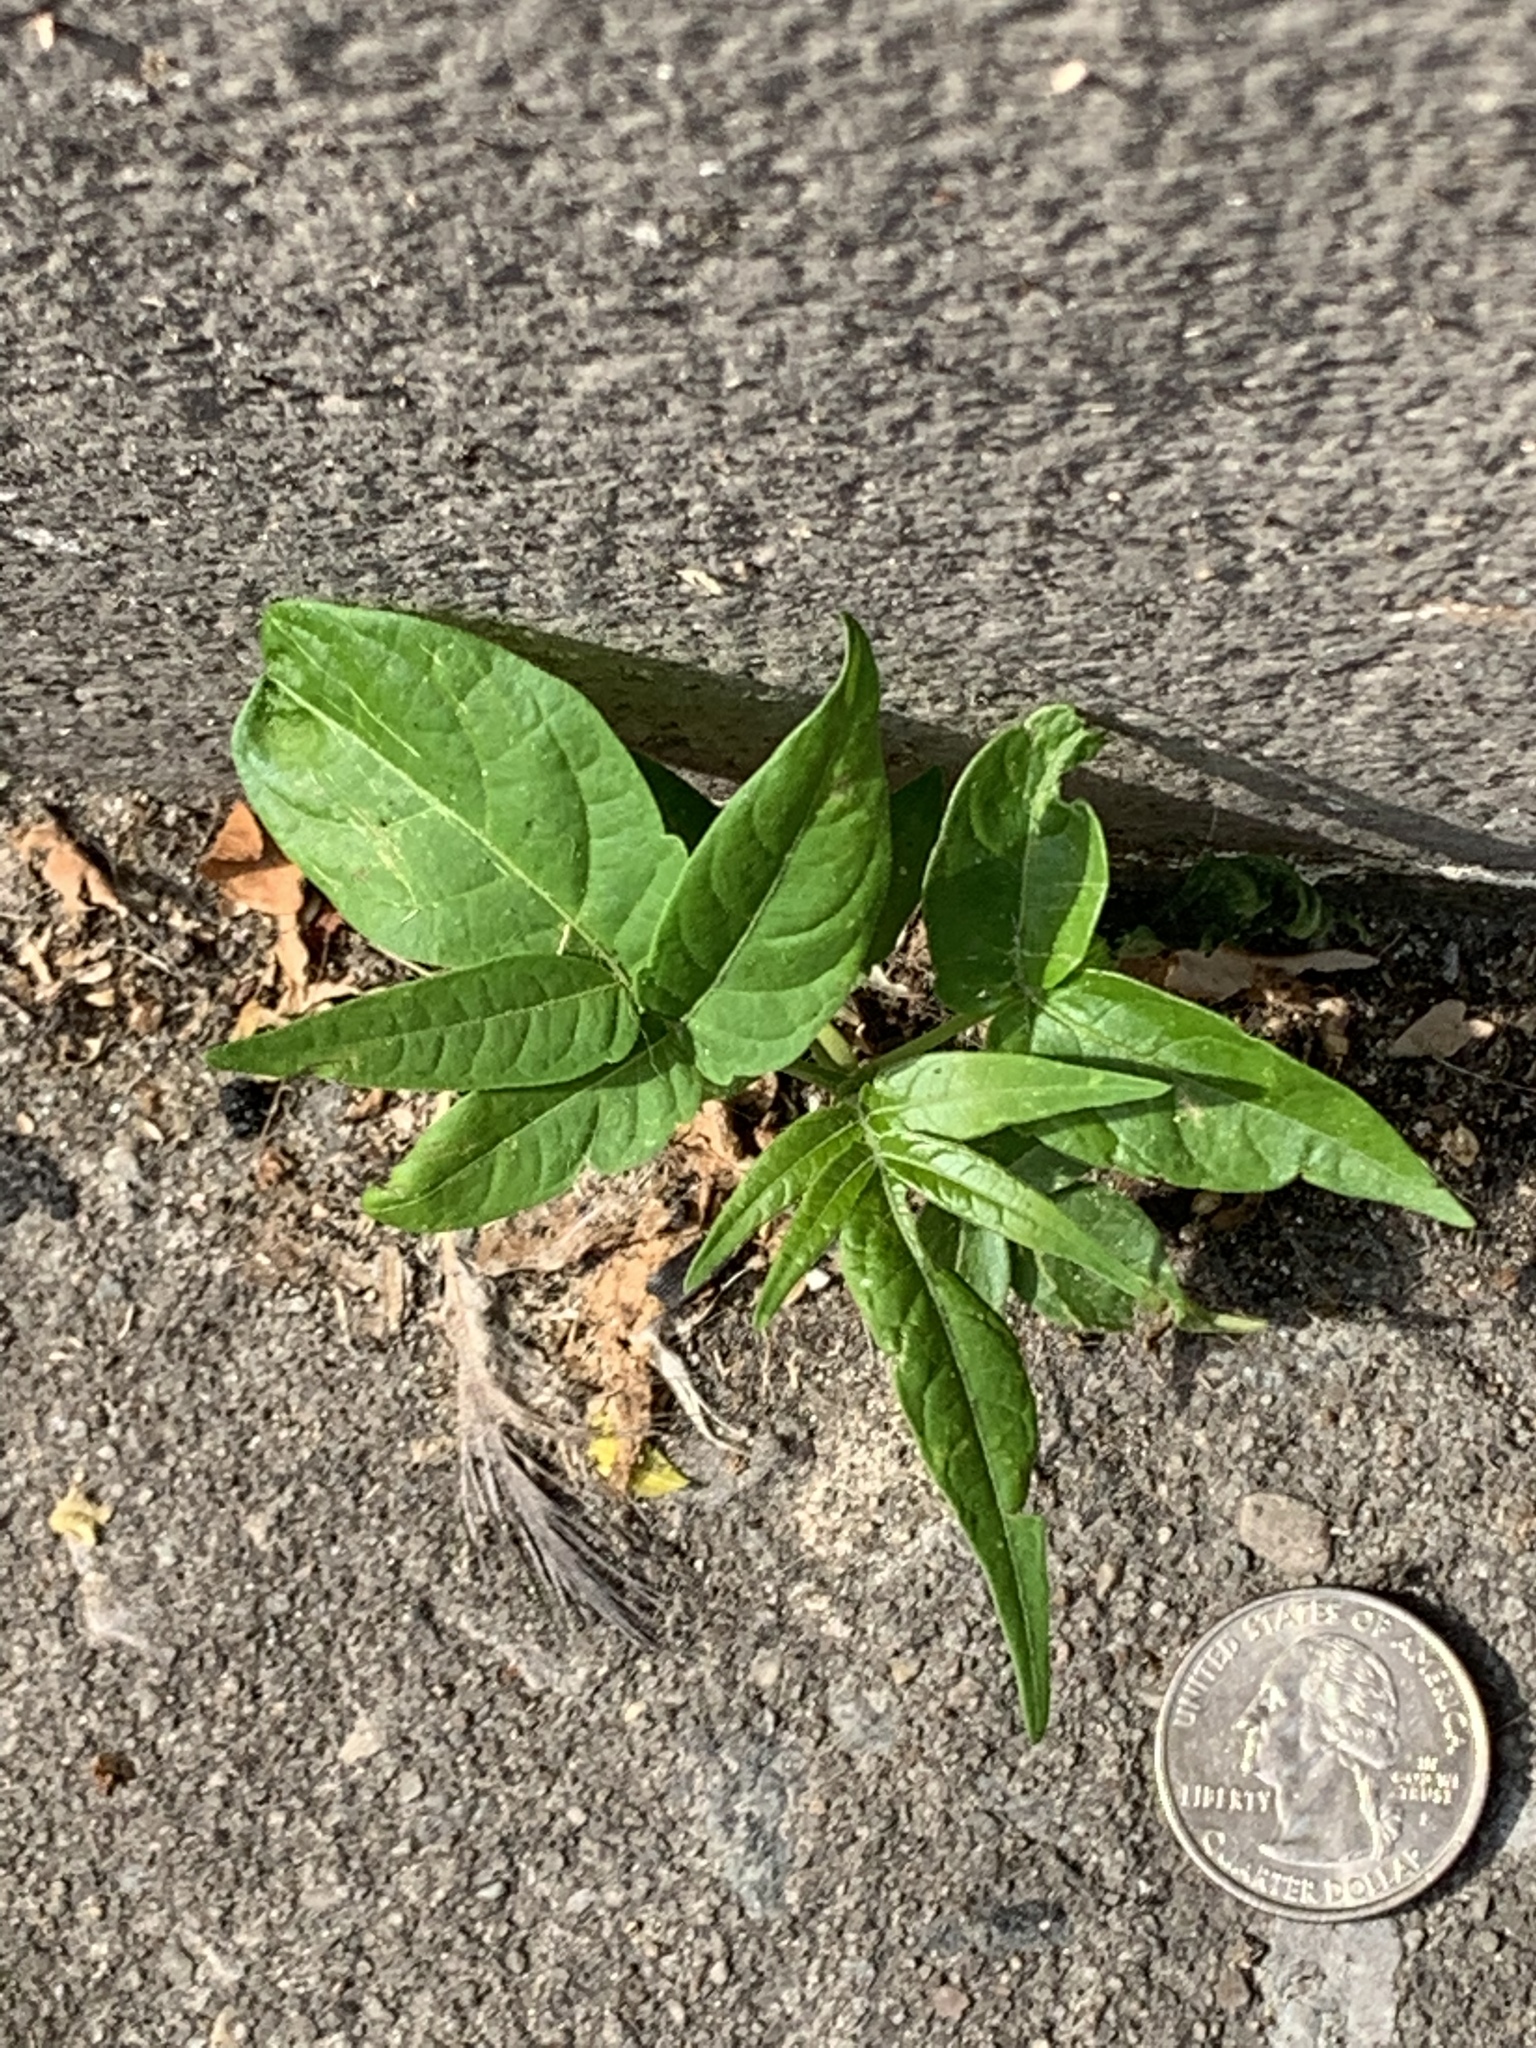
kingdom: Plantae
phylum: Tracheophyta
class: Magnoliopsida
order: Sapindales
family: Simaroubaceae
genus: Ailanthus
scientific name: Ailanthus altissima
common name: Tree-of-heaven
